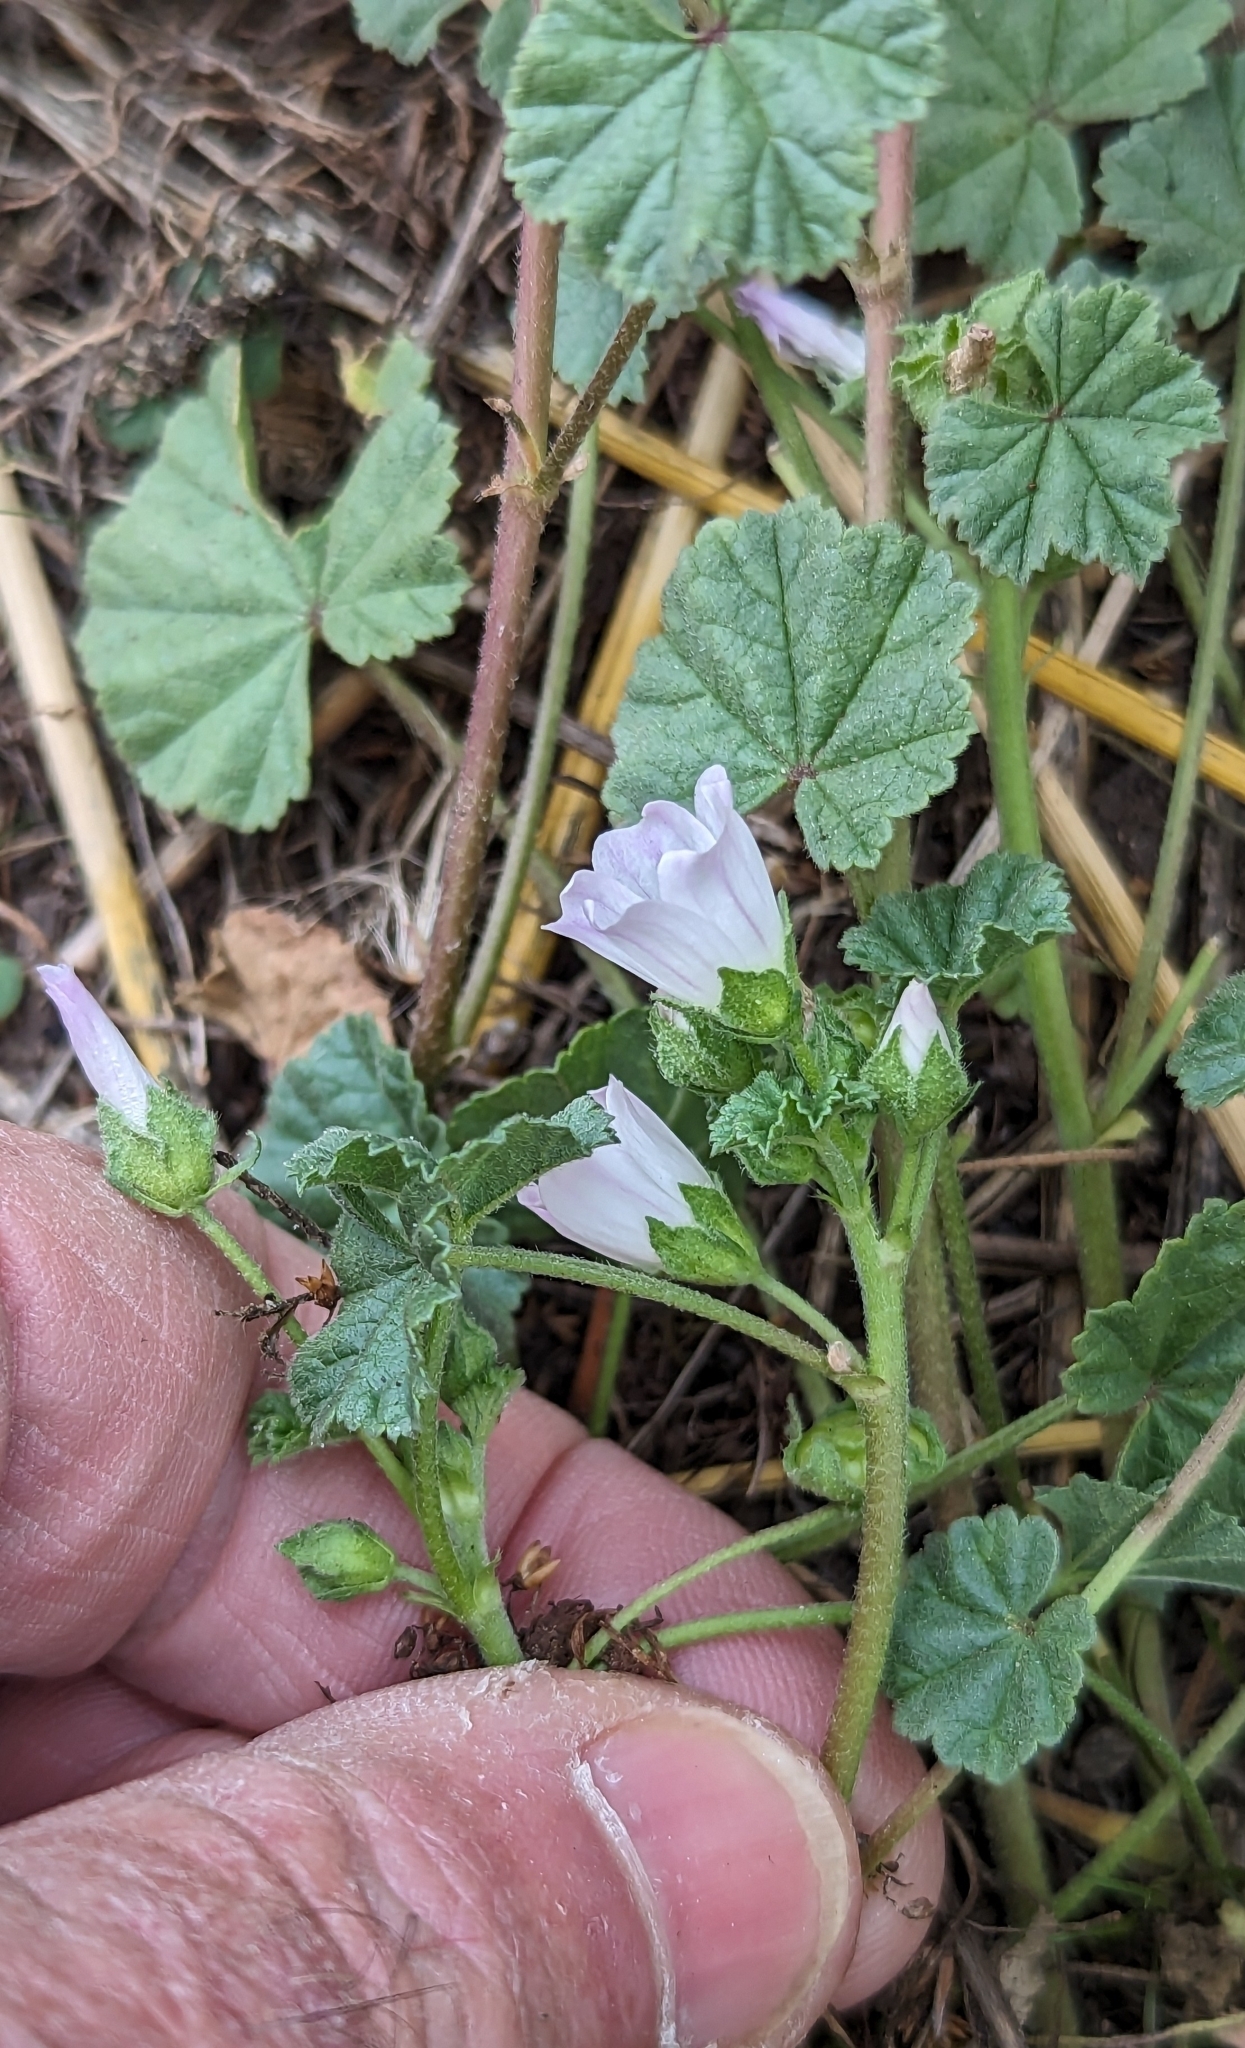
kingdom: Plantae
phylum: Tracheophyta
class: Magnoliopsida
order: Malvales
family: Malvaceae
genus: Malva
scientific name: Malva neglecta
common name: Common mallow
